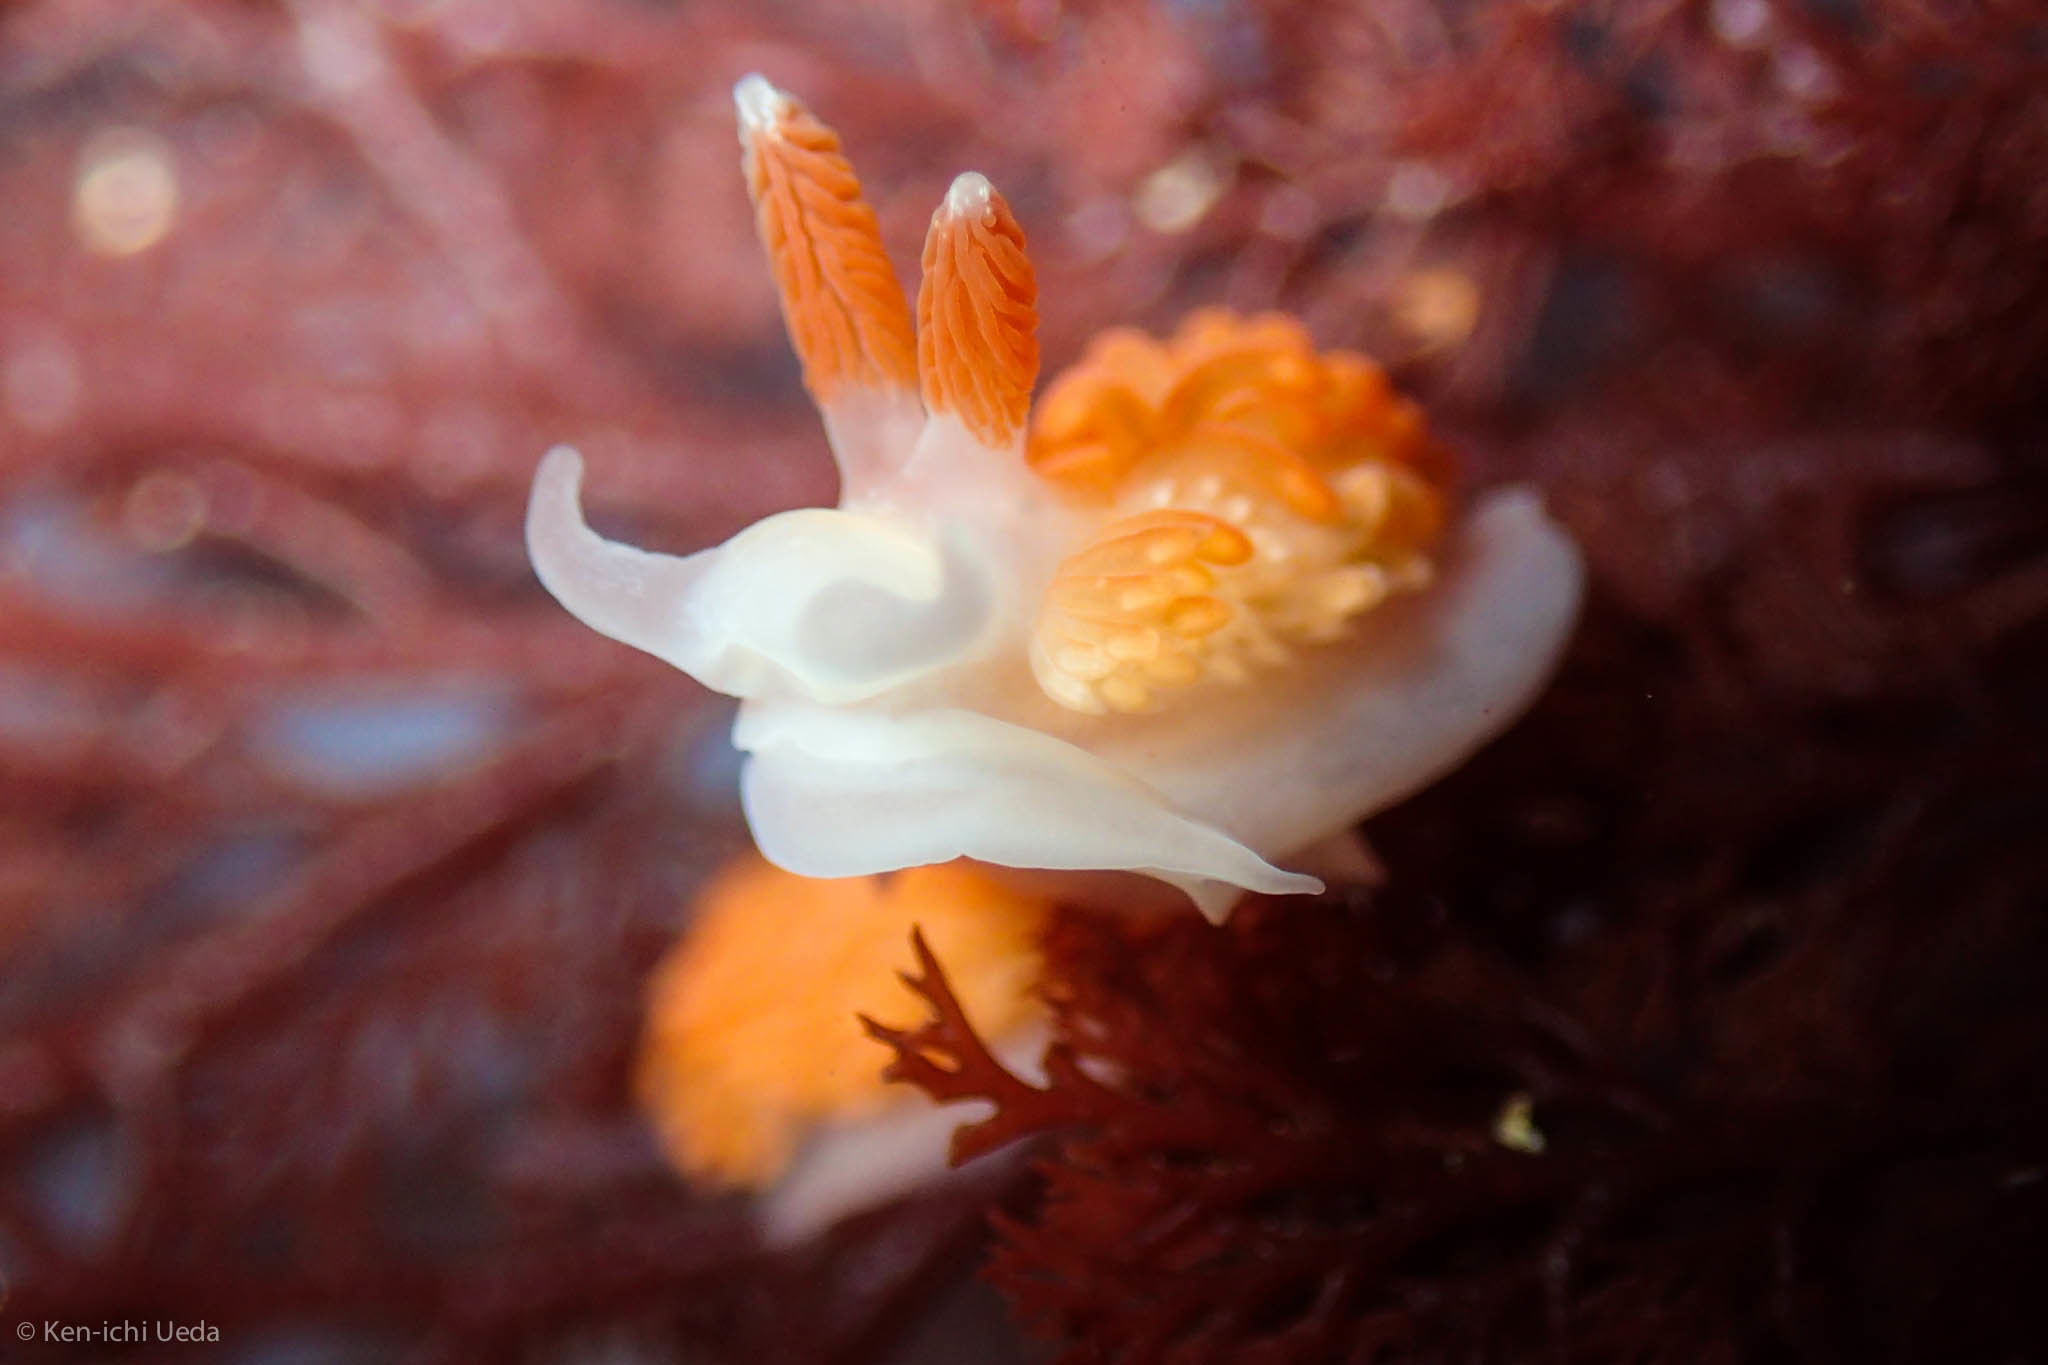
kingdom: Animalia
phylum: Mollusca
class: Gastropoda
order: Nudibranchia
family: Aeolidiidae
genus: Anteaeolidiella
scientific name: Anteaeolidiella oliviae
